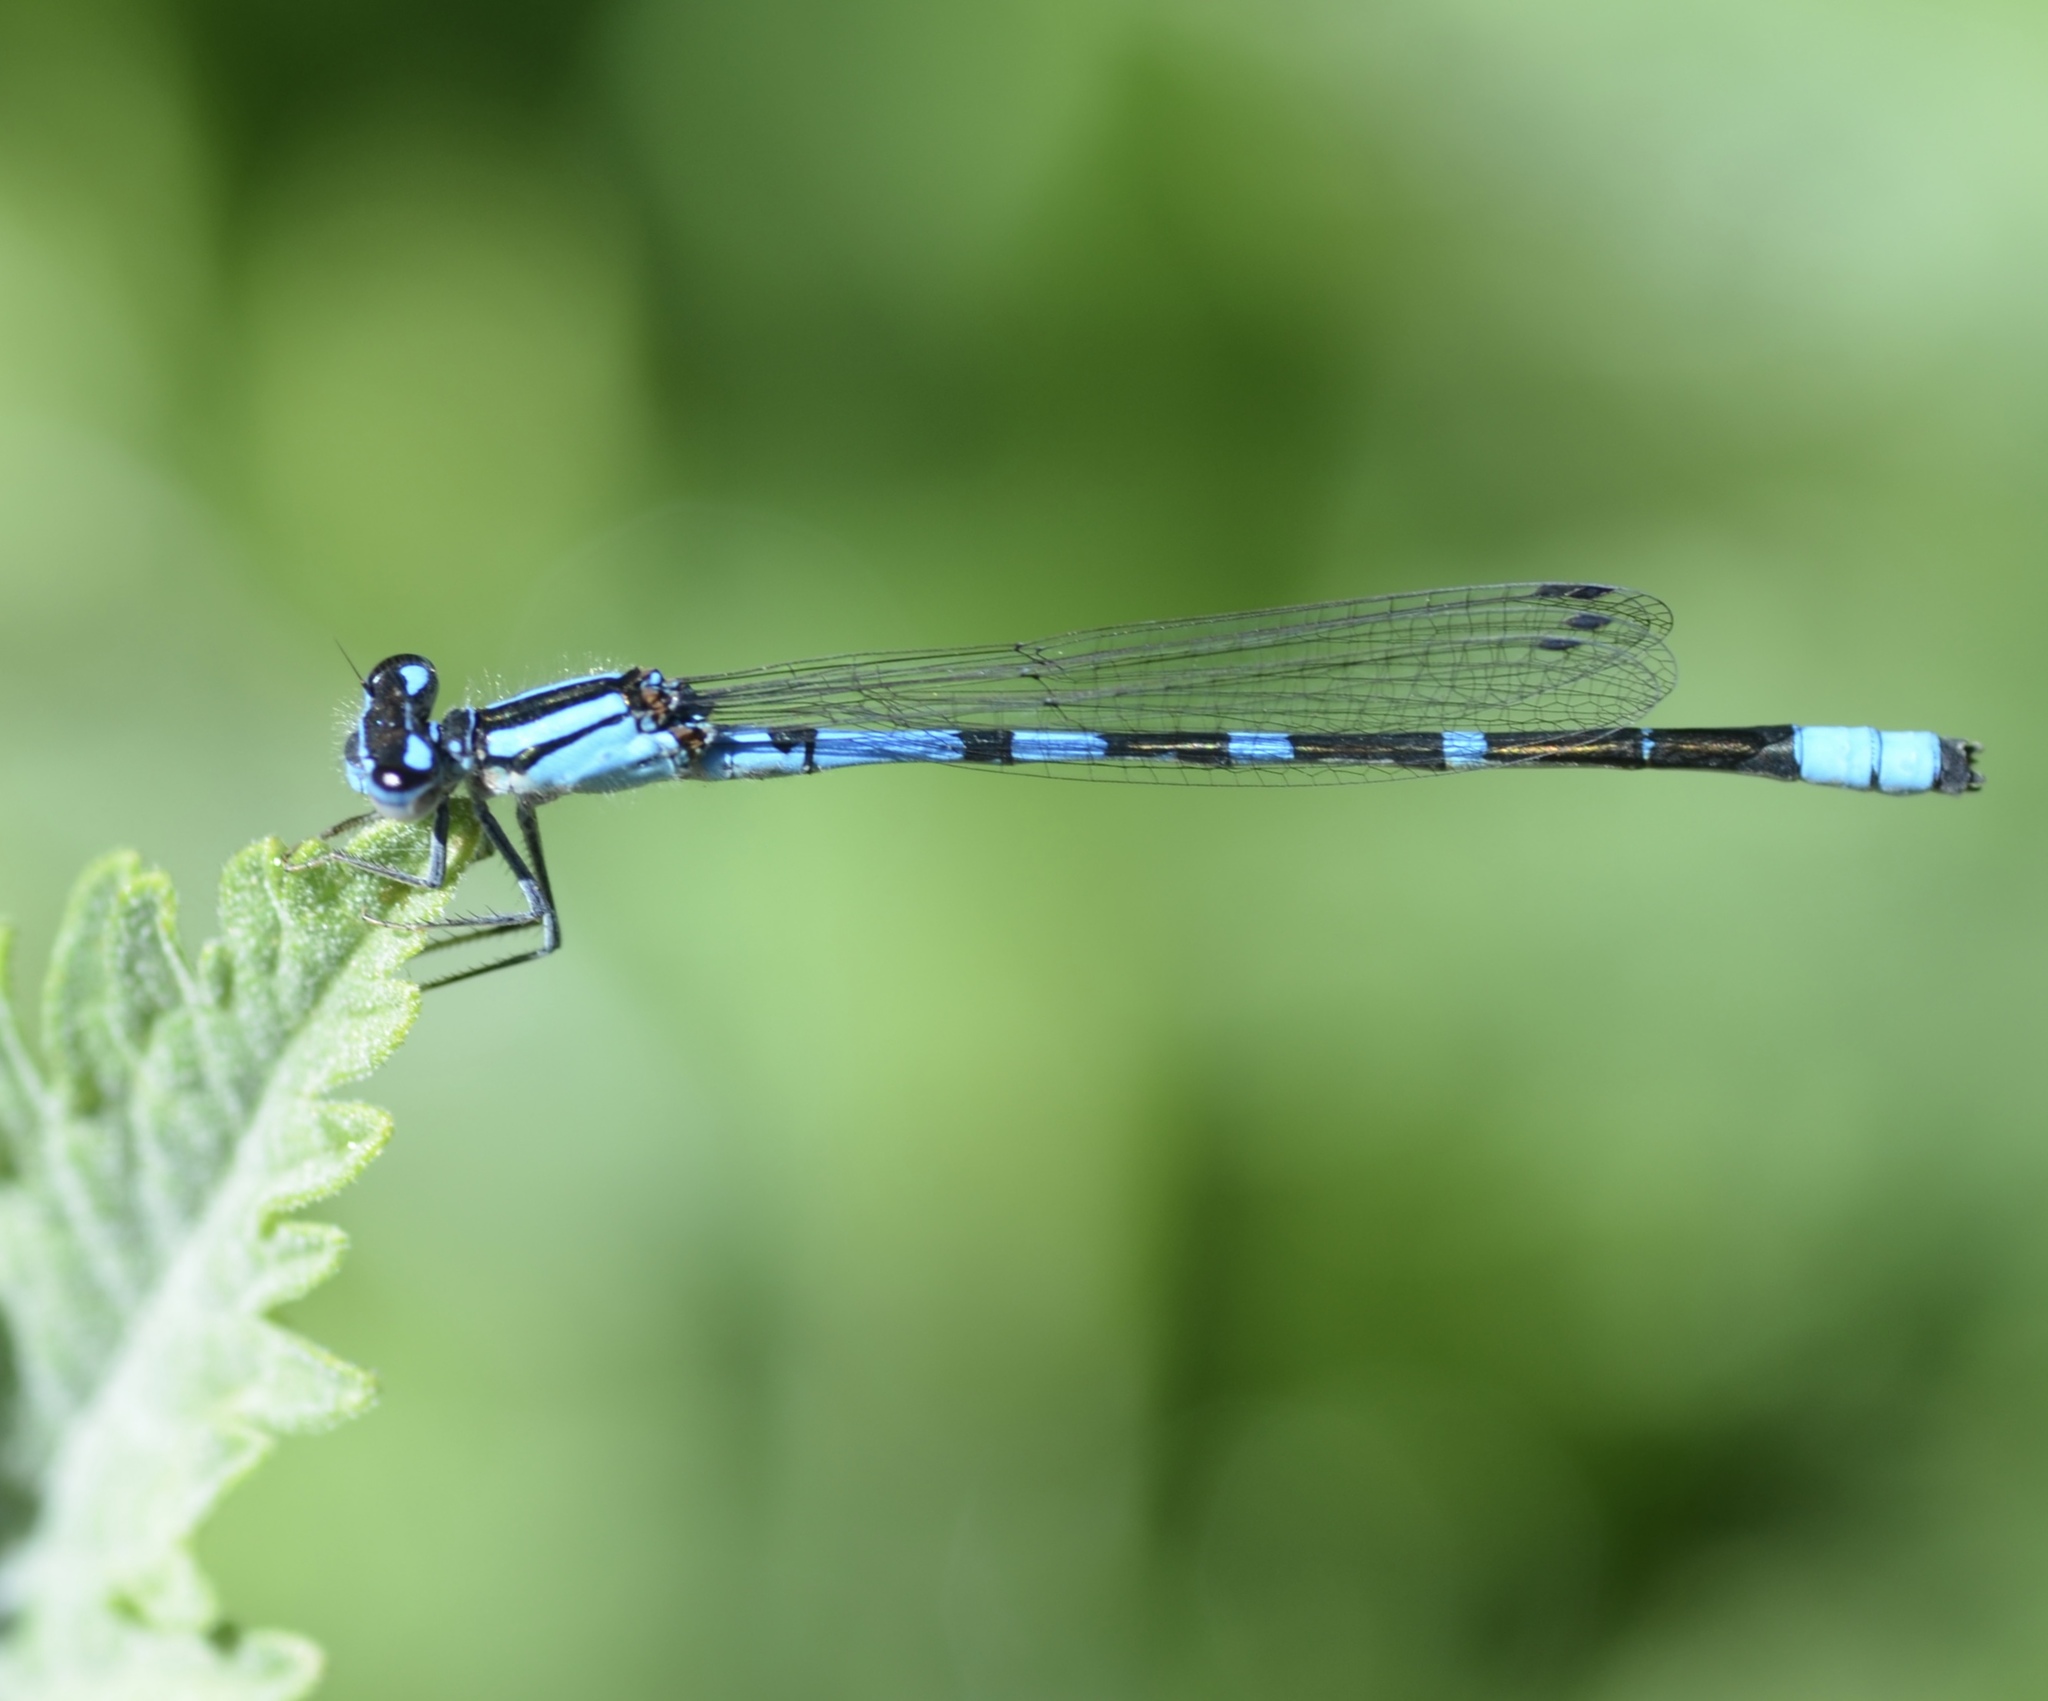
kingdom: Animalia
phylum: Arthropoda
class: Insecta
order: Odonata
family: Coenagrionidae
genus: Enallagma
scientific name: Enallagma praevarum
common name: Arroyo bluet
